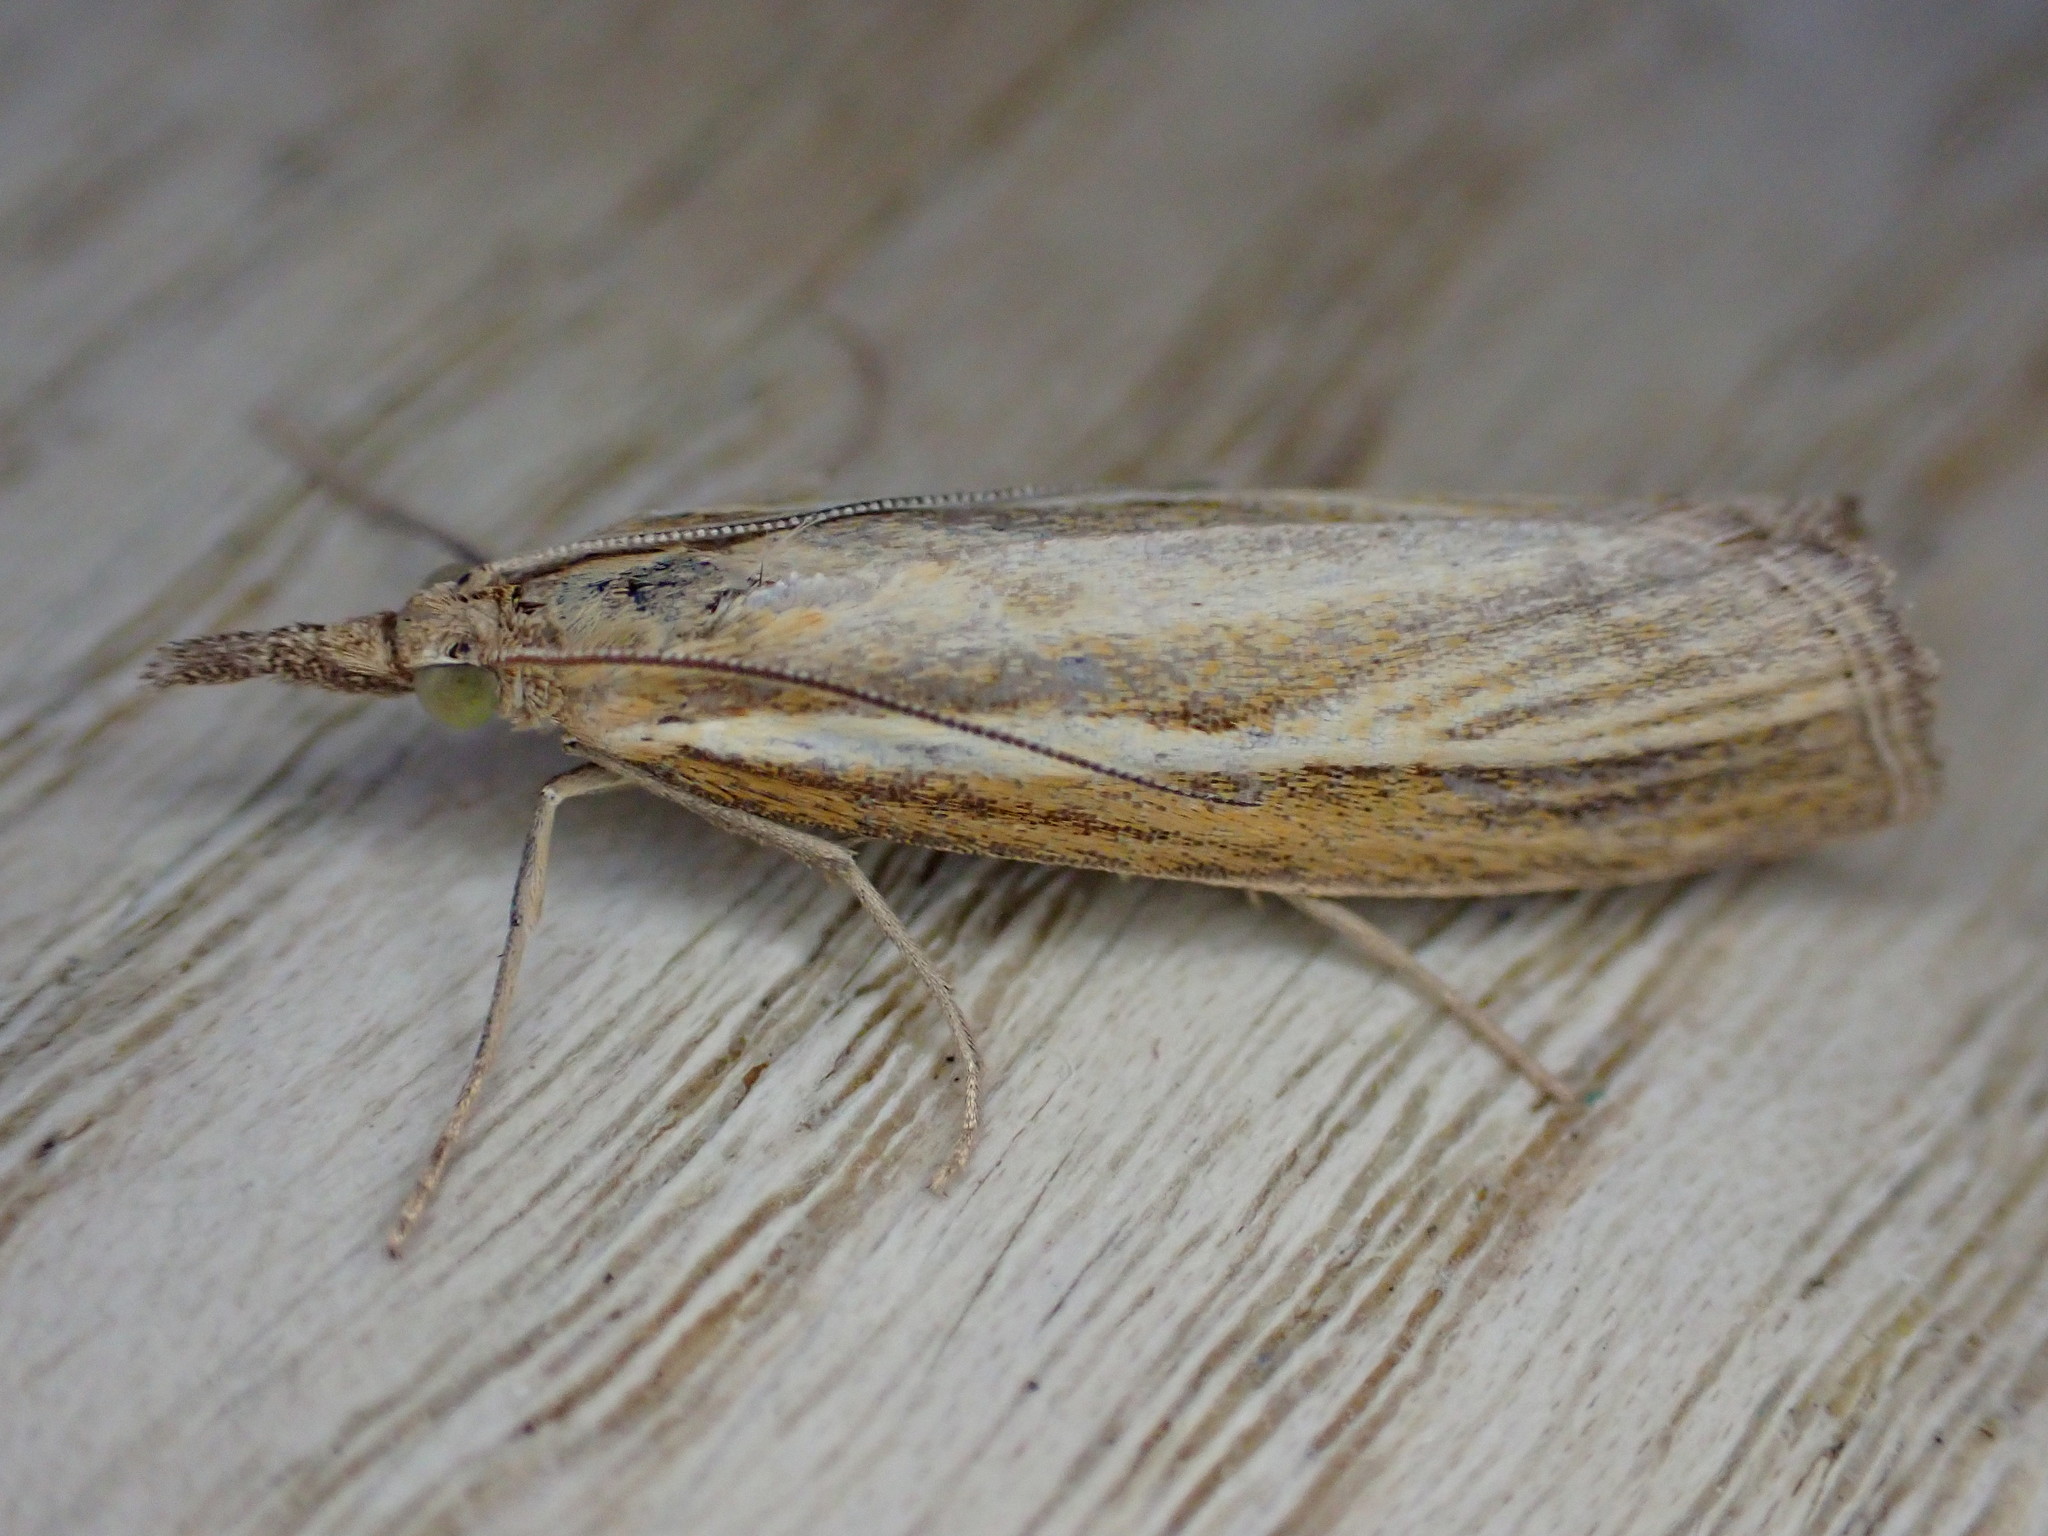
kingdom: Animalia
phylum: Arthropoda
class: Insecta
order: Lepidoptera
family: Crambidae
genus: Agriphila
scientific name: Agriphila tristellus
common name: Common grass-veneer
